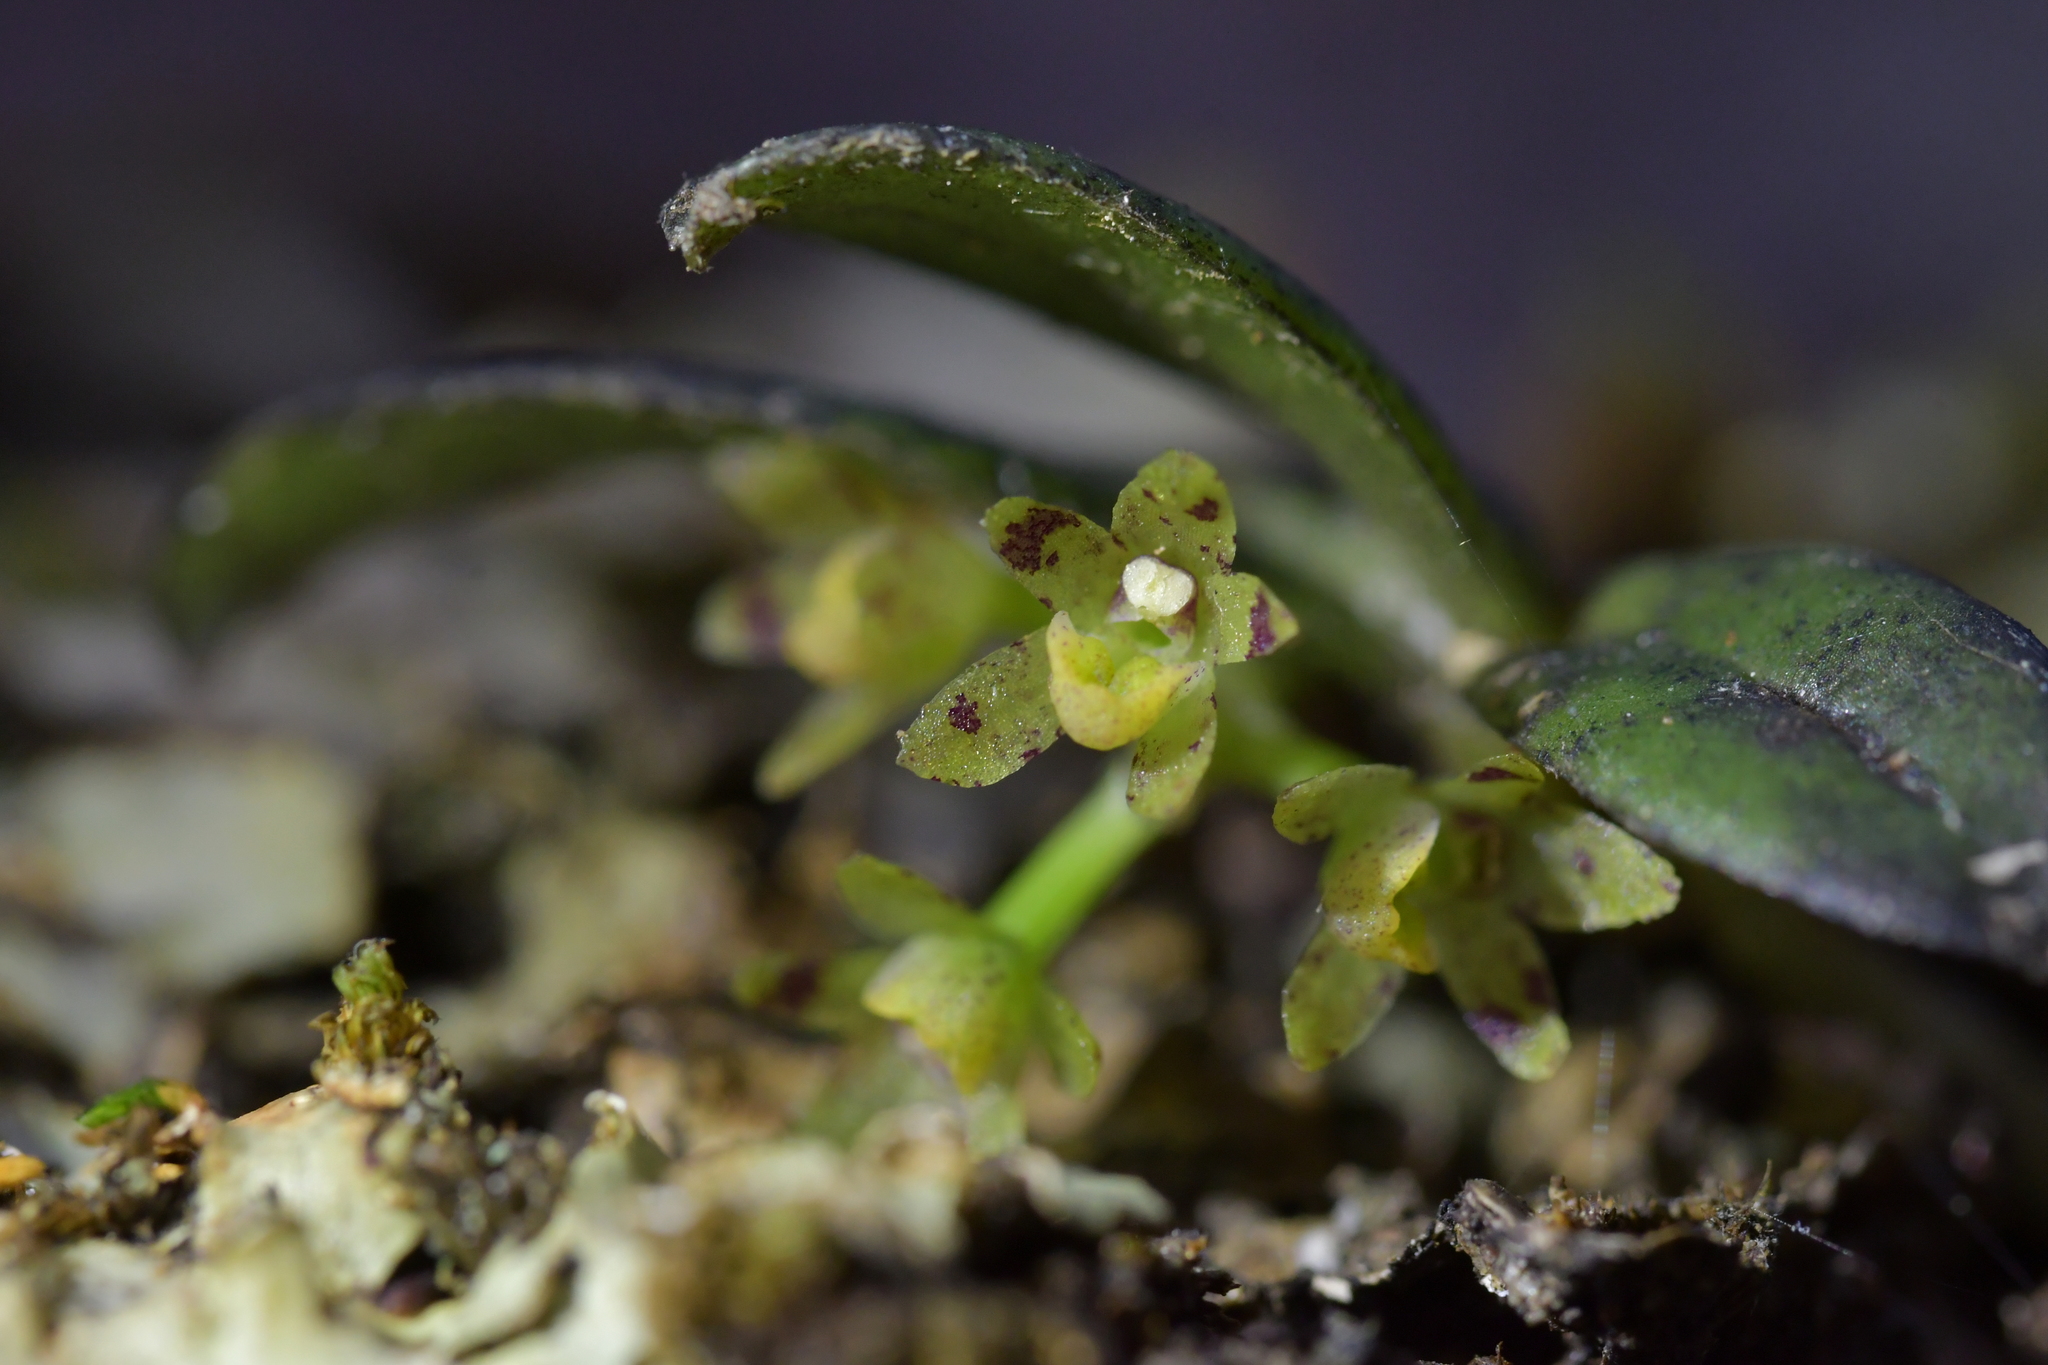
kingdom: Plantae
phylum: Tracheophyta
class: Liliopsida
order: Asparagales
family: Orchidaceae
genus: Drymoanthus
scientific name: Drymoanthus adversus
